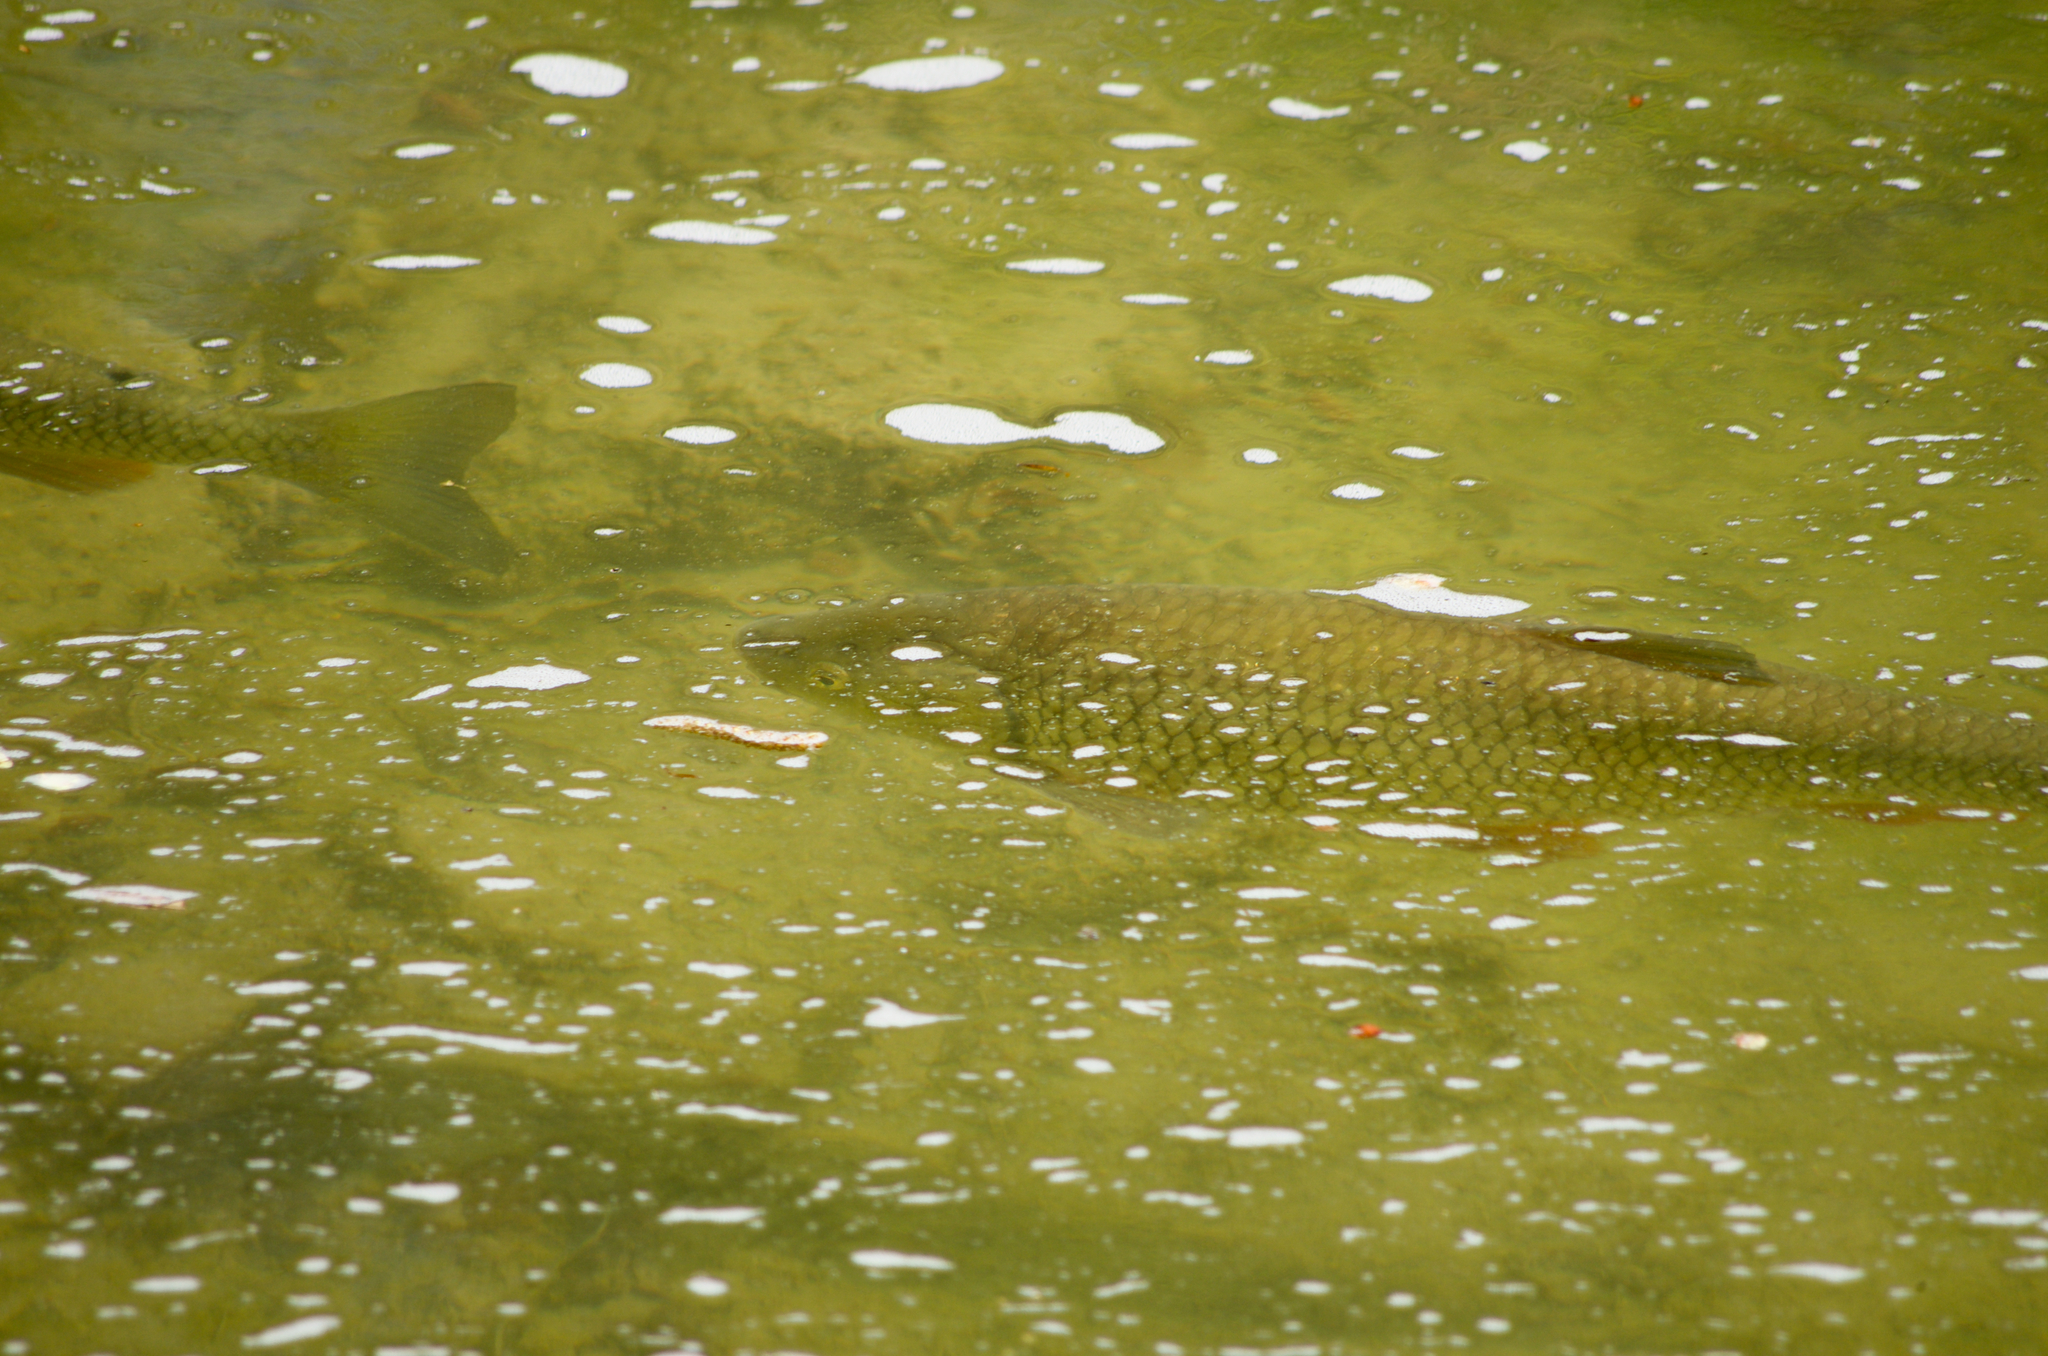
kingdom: Animalia
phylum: Chordata
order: Cypriniformes
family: Cyprinidae
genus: Squalius
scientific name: Squalius cephalus
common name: Chub
